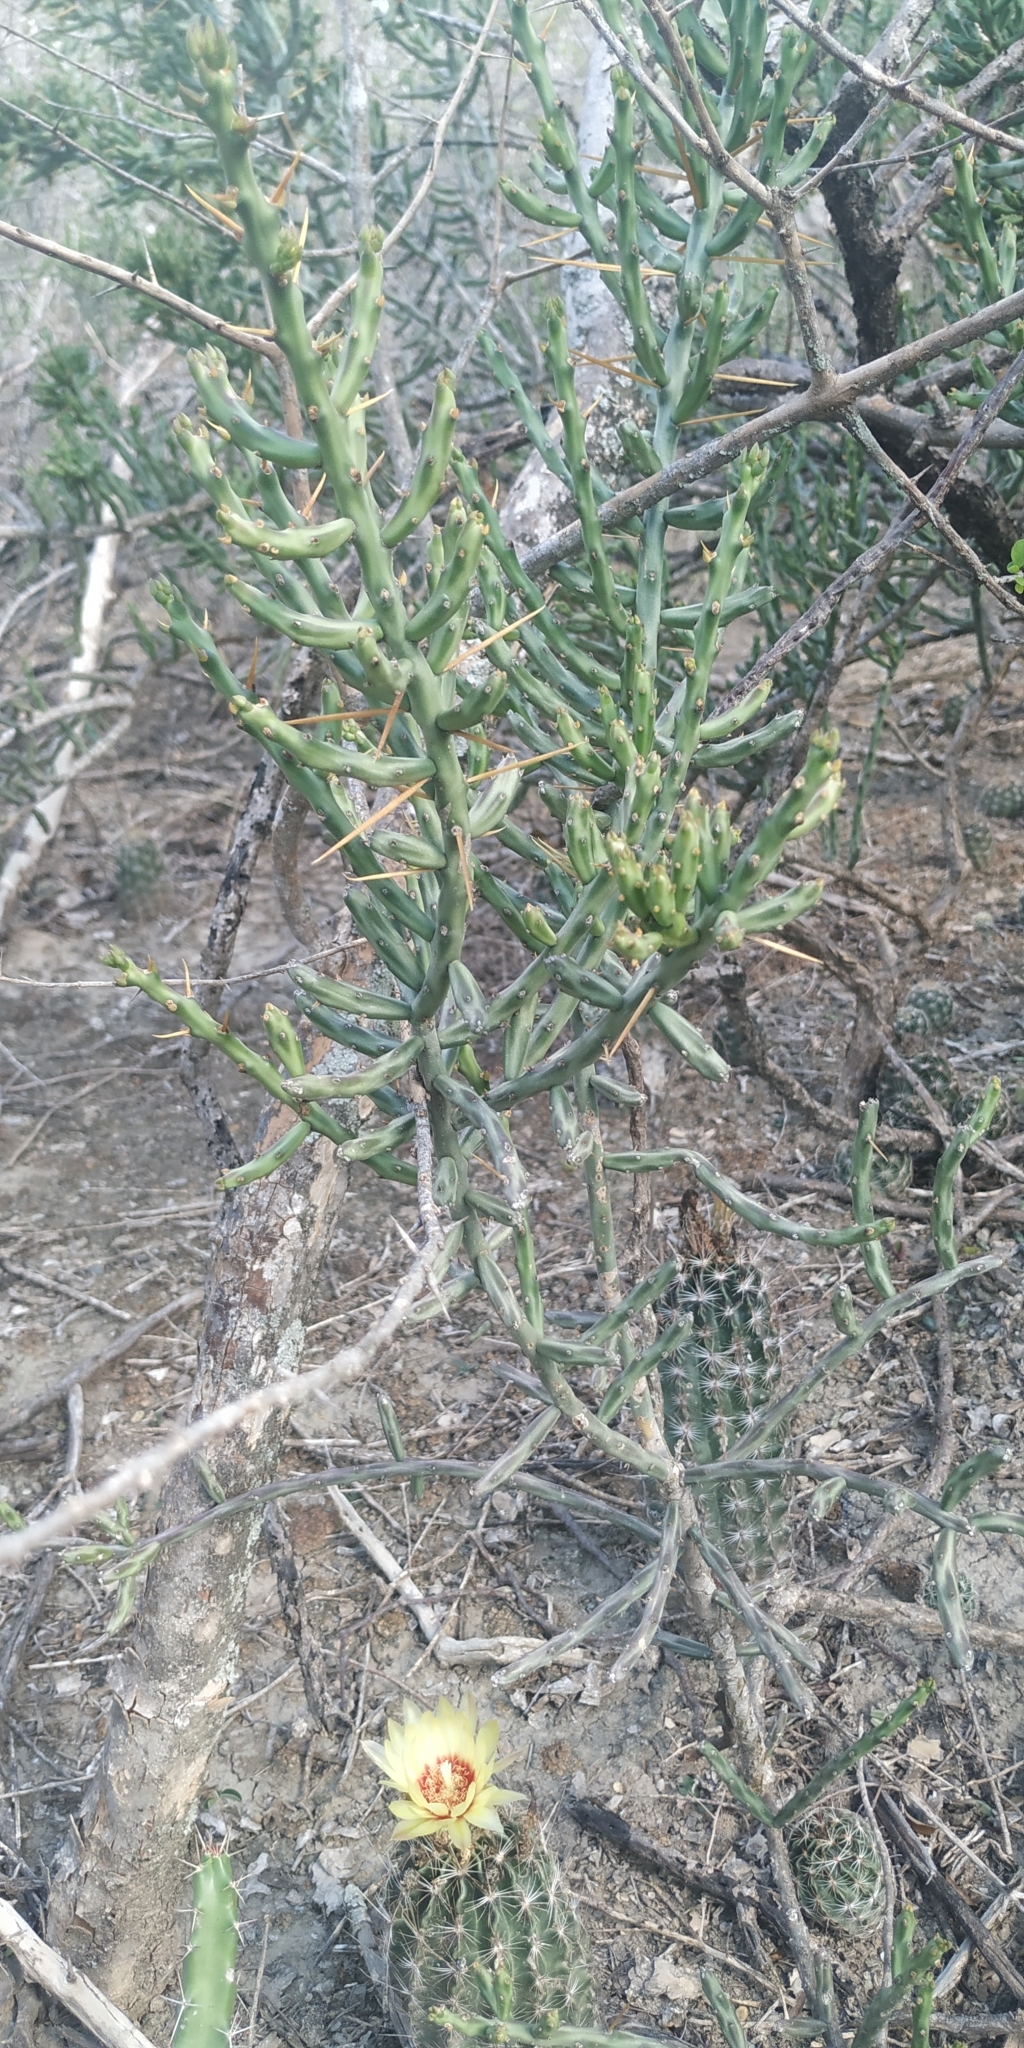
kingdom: Plantae
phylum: Tracheophyta
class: Magnoliopsida
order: Caryophyllales
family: Cactaceae
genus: Cylindropuntia
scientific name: Cylindropuntia leptocaulis
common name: Christmas cactus
